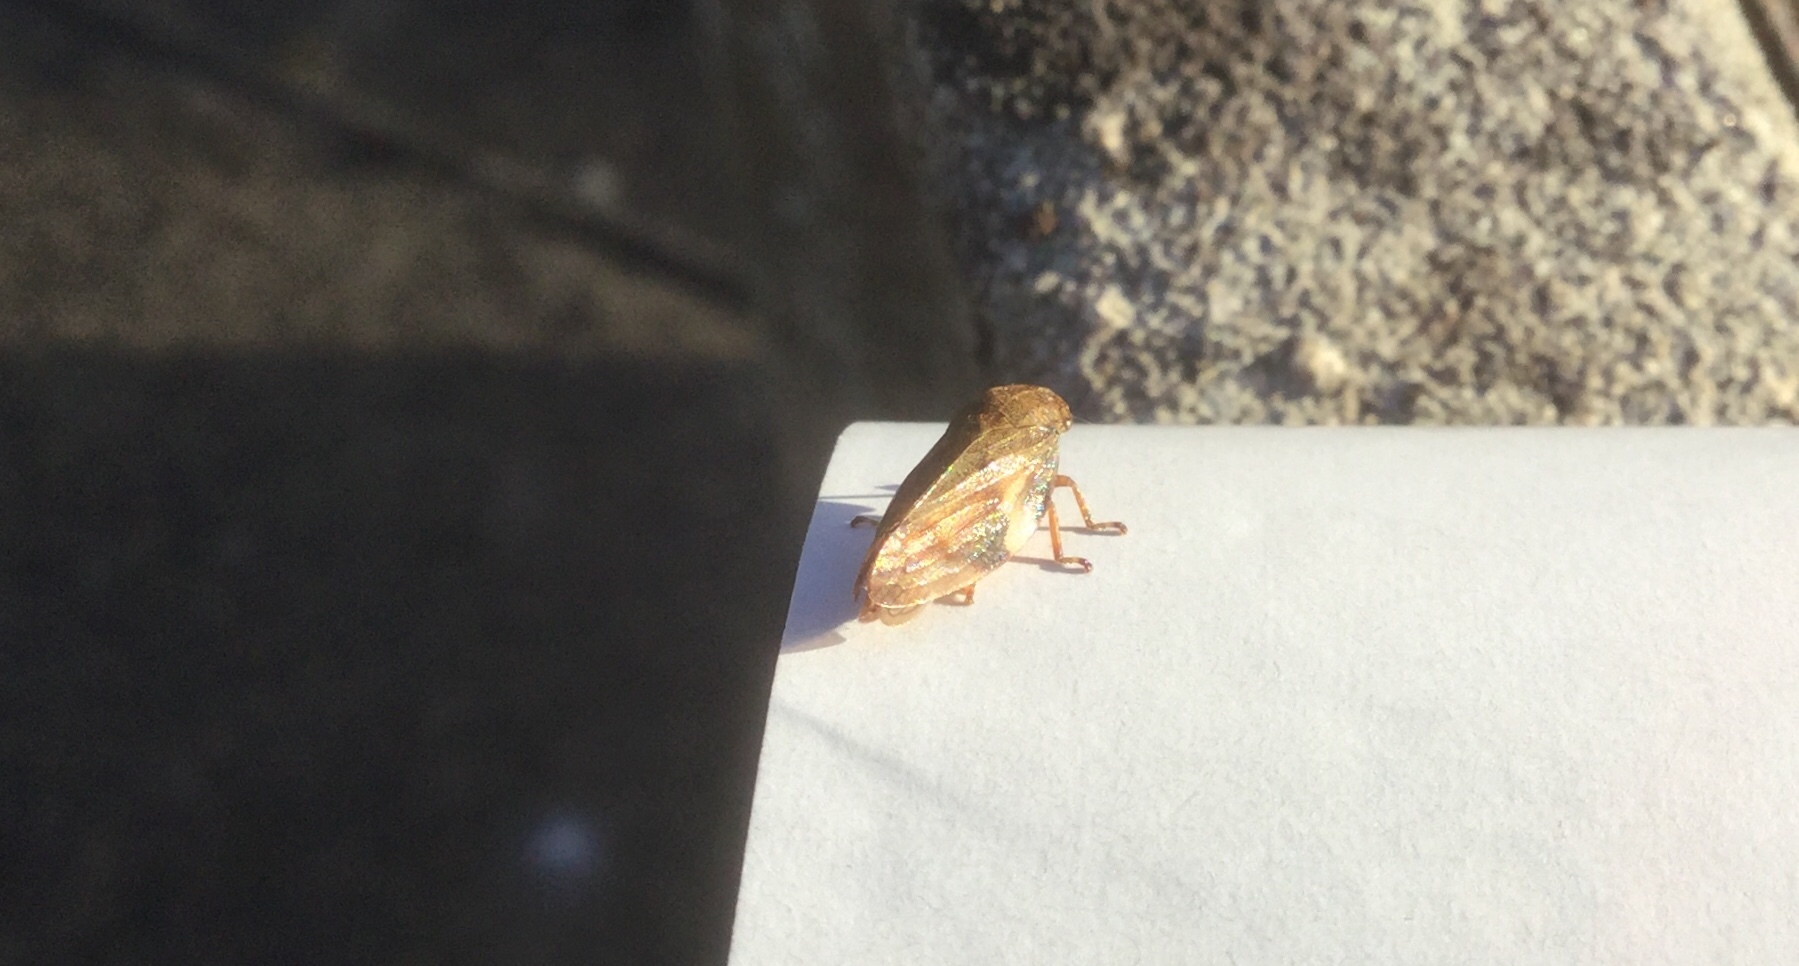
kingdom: Animalia
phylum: Arthropoda
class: Insecta
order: Hemiptera
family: Aphrophoridae
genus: Aphrophora
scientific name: Aphrophora alni
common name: European alder spittlebug
